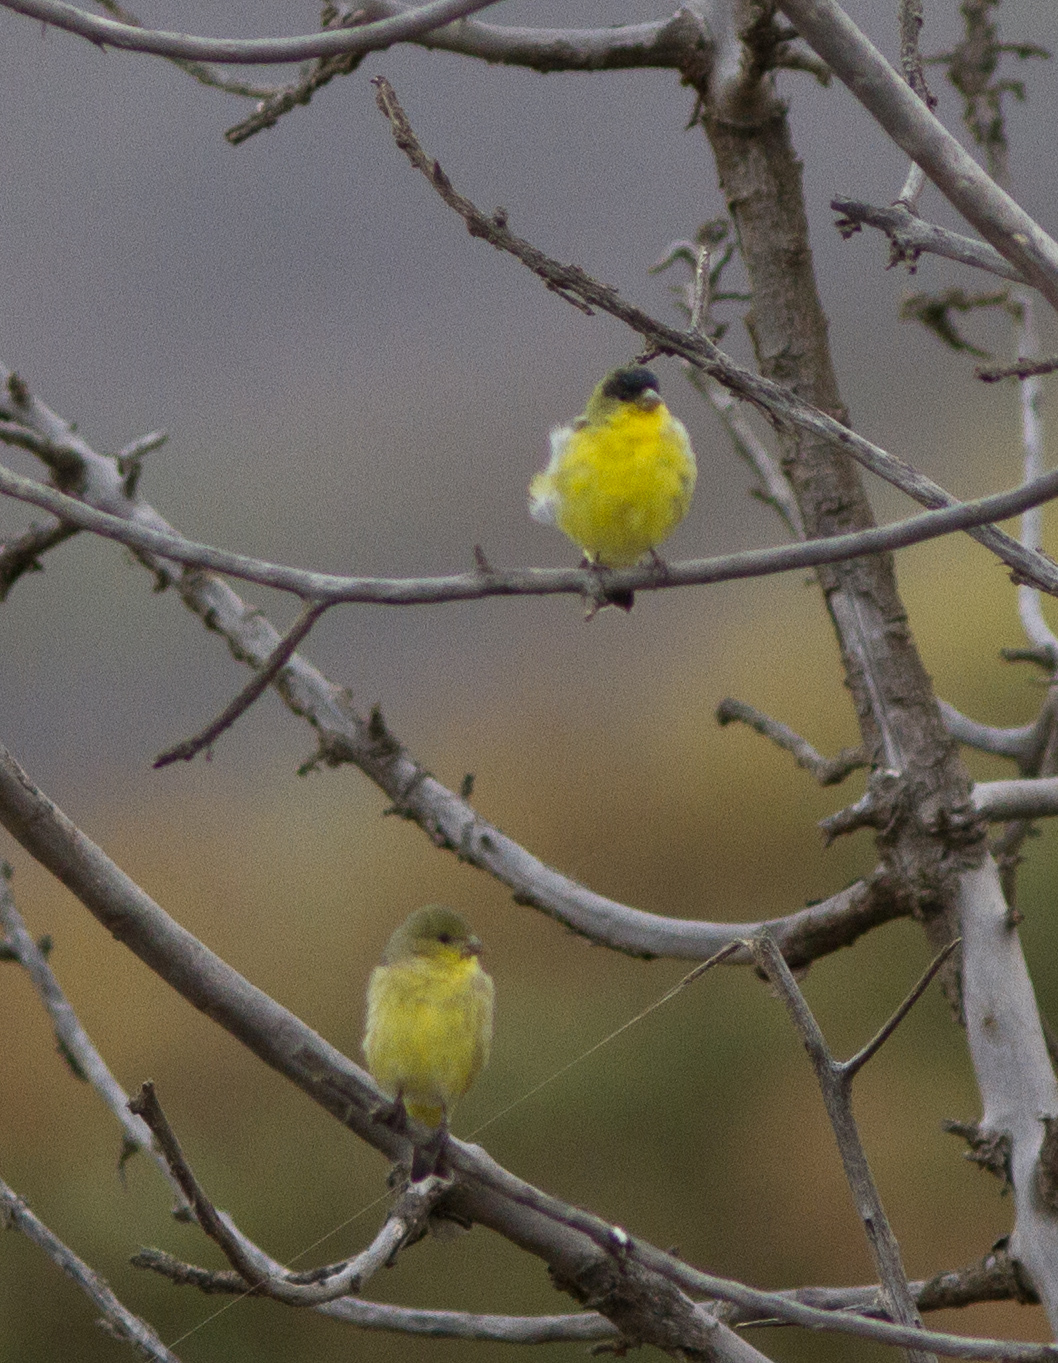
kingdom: Animalia
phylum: Chordata
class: Aves
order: Passeriformes
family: Fringillidae
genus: Spinus
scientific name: Spinus psaltria
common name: Lesser goldfinch
